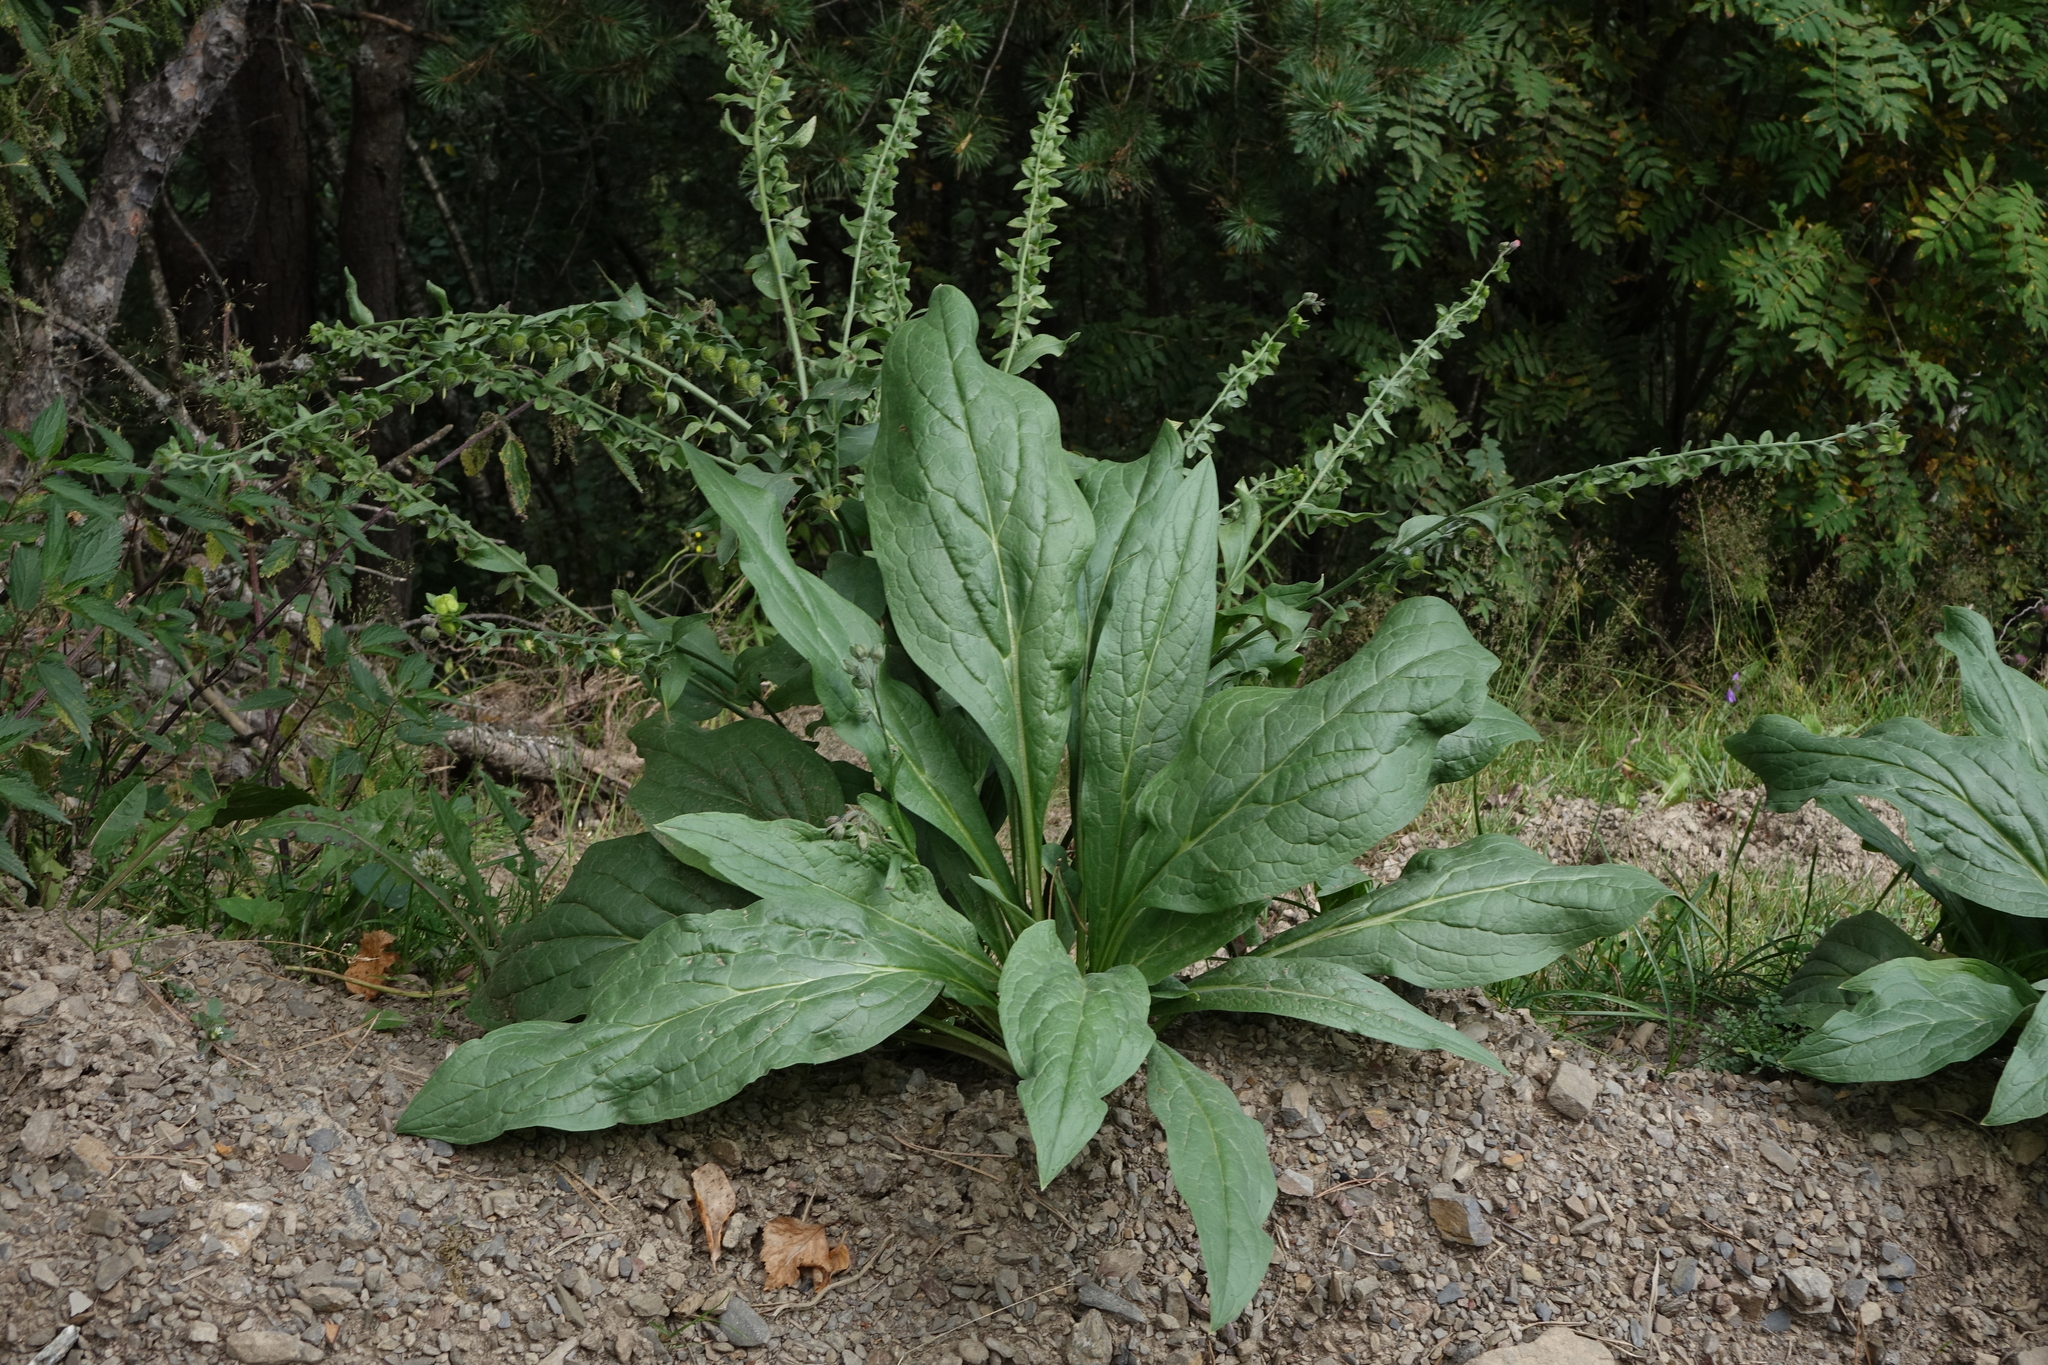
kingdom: Plantae
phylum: Tracheophyta
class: Magnoliopsida
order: Boraginales
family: Boraginaceae
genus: Cynoglossum
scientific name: Cynoglossum creticum
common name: Blue hound's tongue
